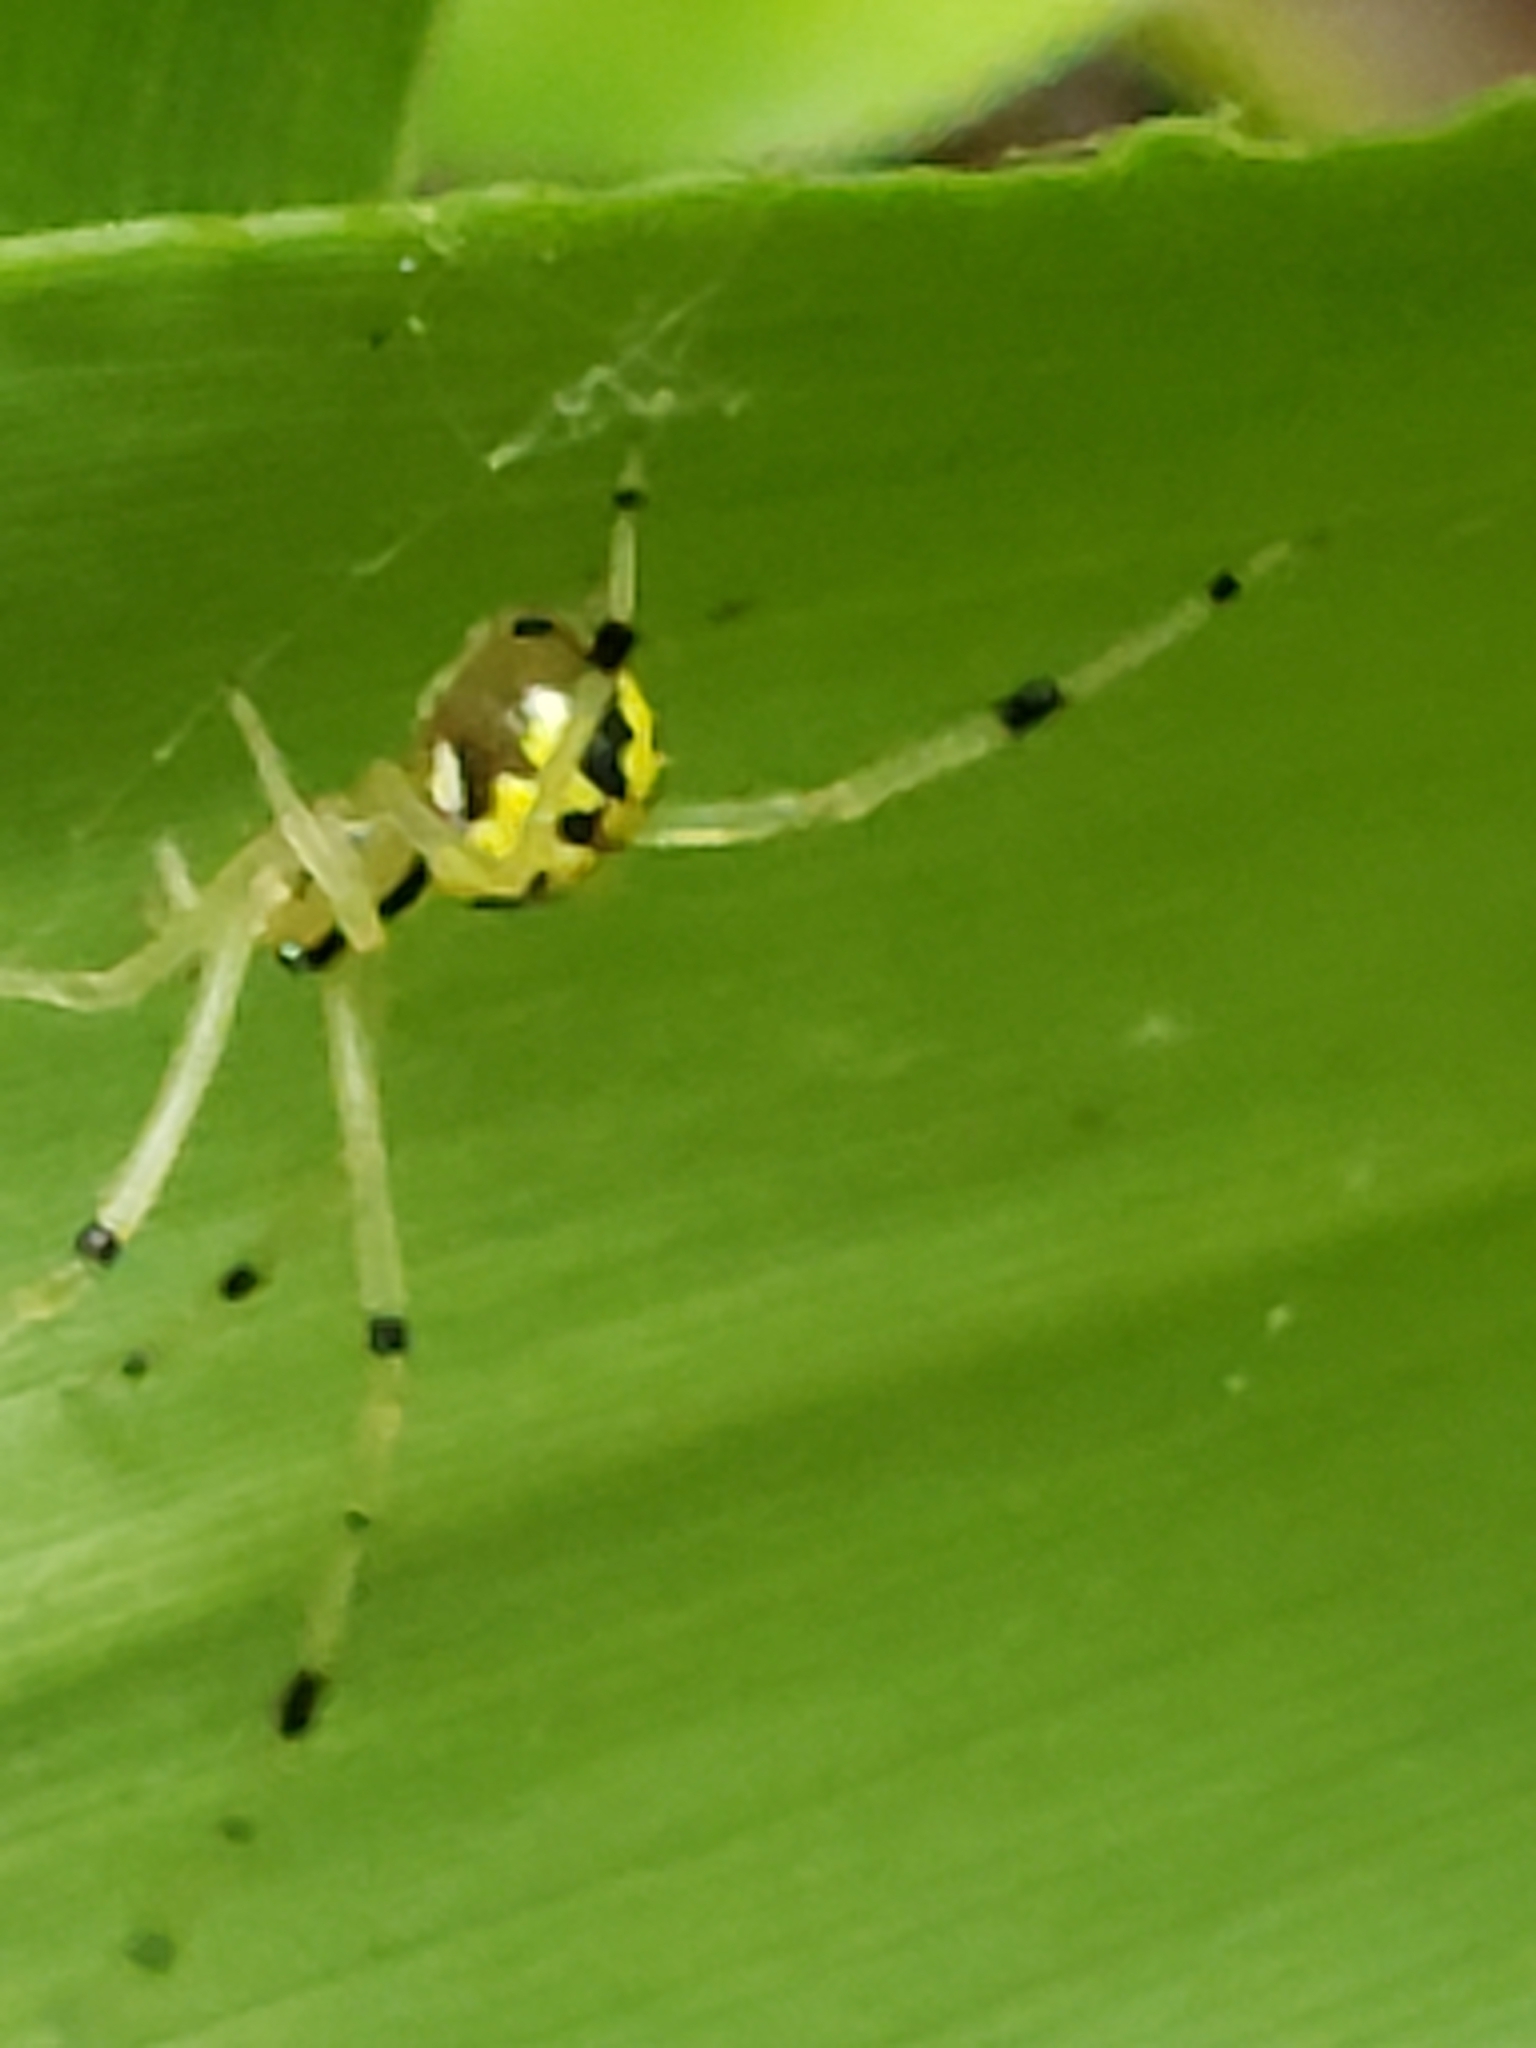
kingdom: Animalia
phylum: Arthropoda
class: Arachnida
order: Araneae
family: Theridiidae
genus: Phylloneta
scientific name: Phylloneta pictipes
